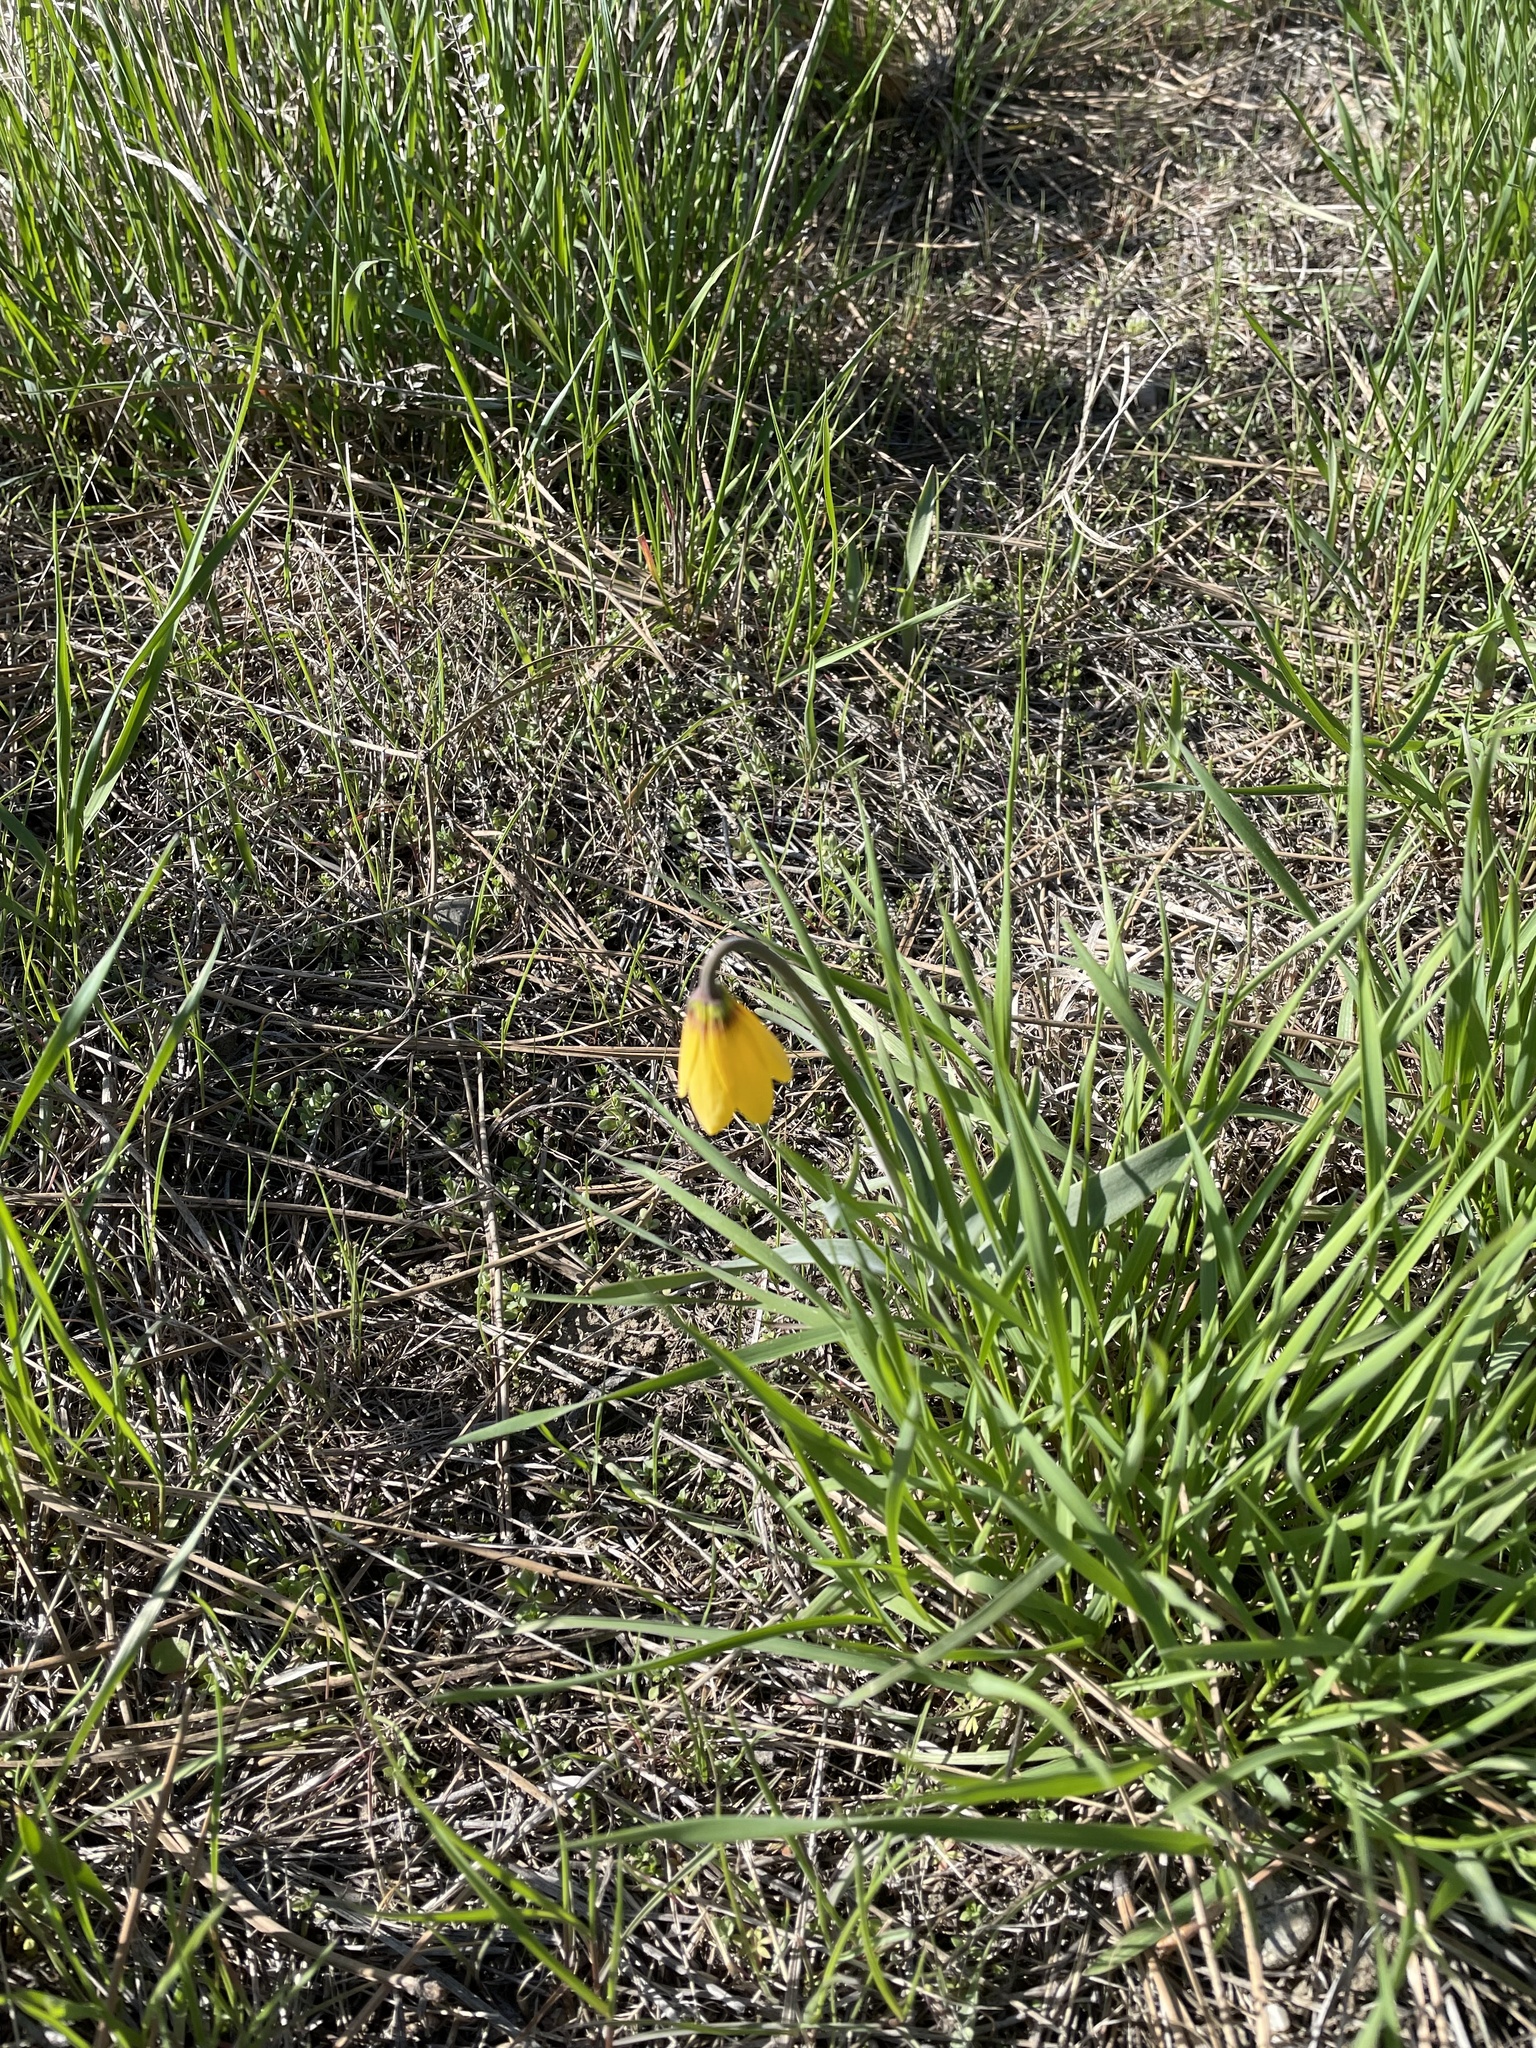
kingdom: Plantae
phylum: Tracheophyta
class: Liliopsida
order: Liliales
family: Liliaceae
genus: Fritillaria
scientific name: Fritillaria pudica
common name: Yellow fritillary
